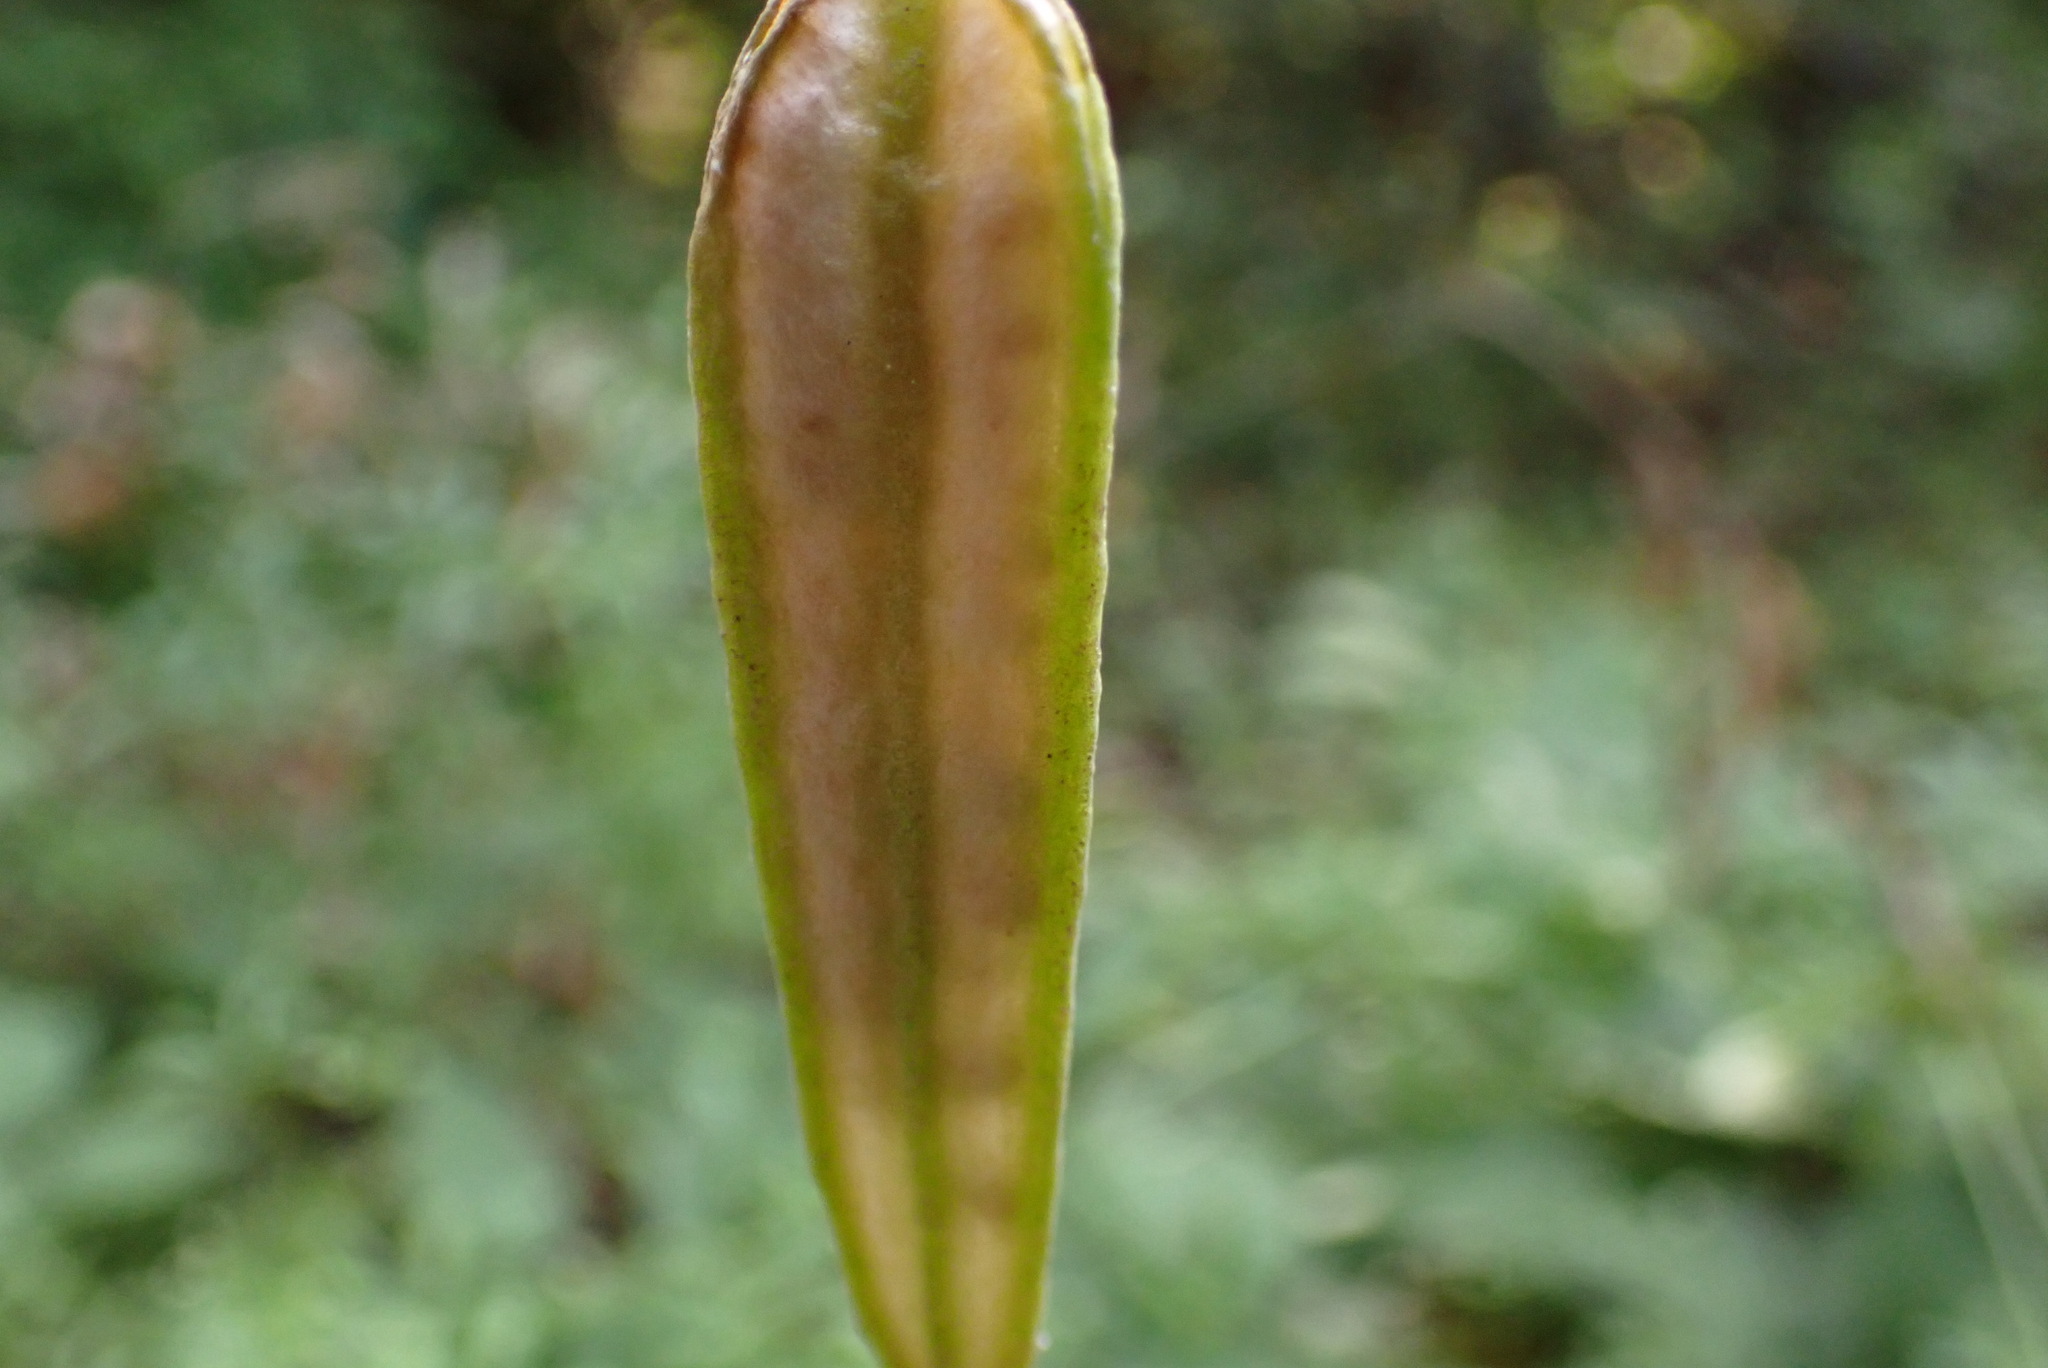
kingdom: Plantae
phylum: Tracheophyta
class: Liliopsida
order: Liliales
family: Liliaceae
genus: Erythronium
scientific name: Erythronium oregonum
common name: Giant adder's-tongue
